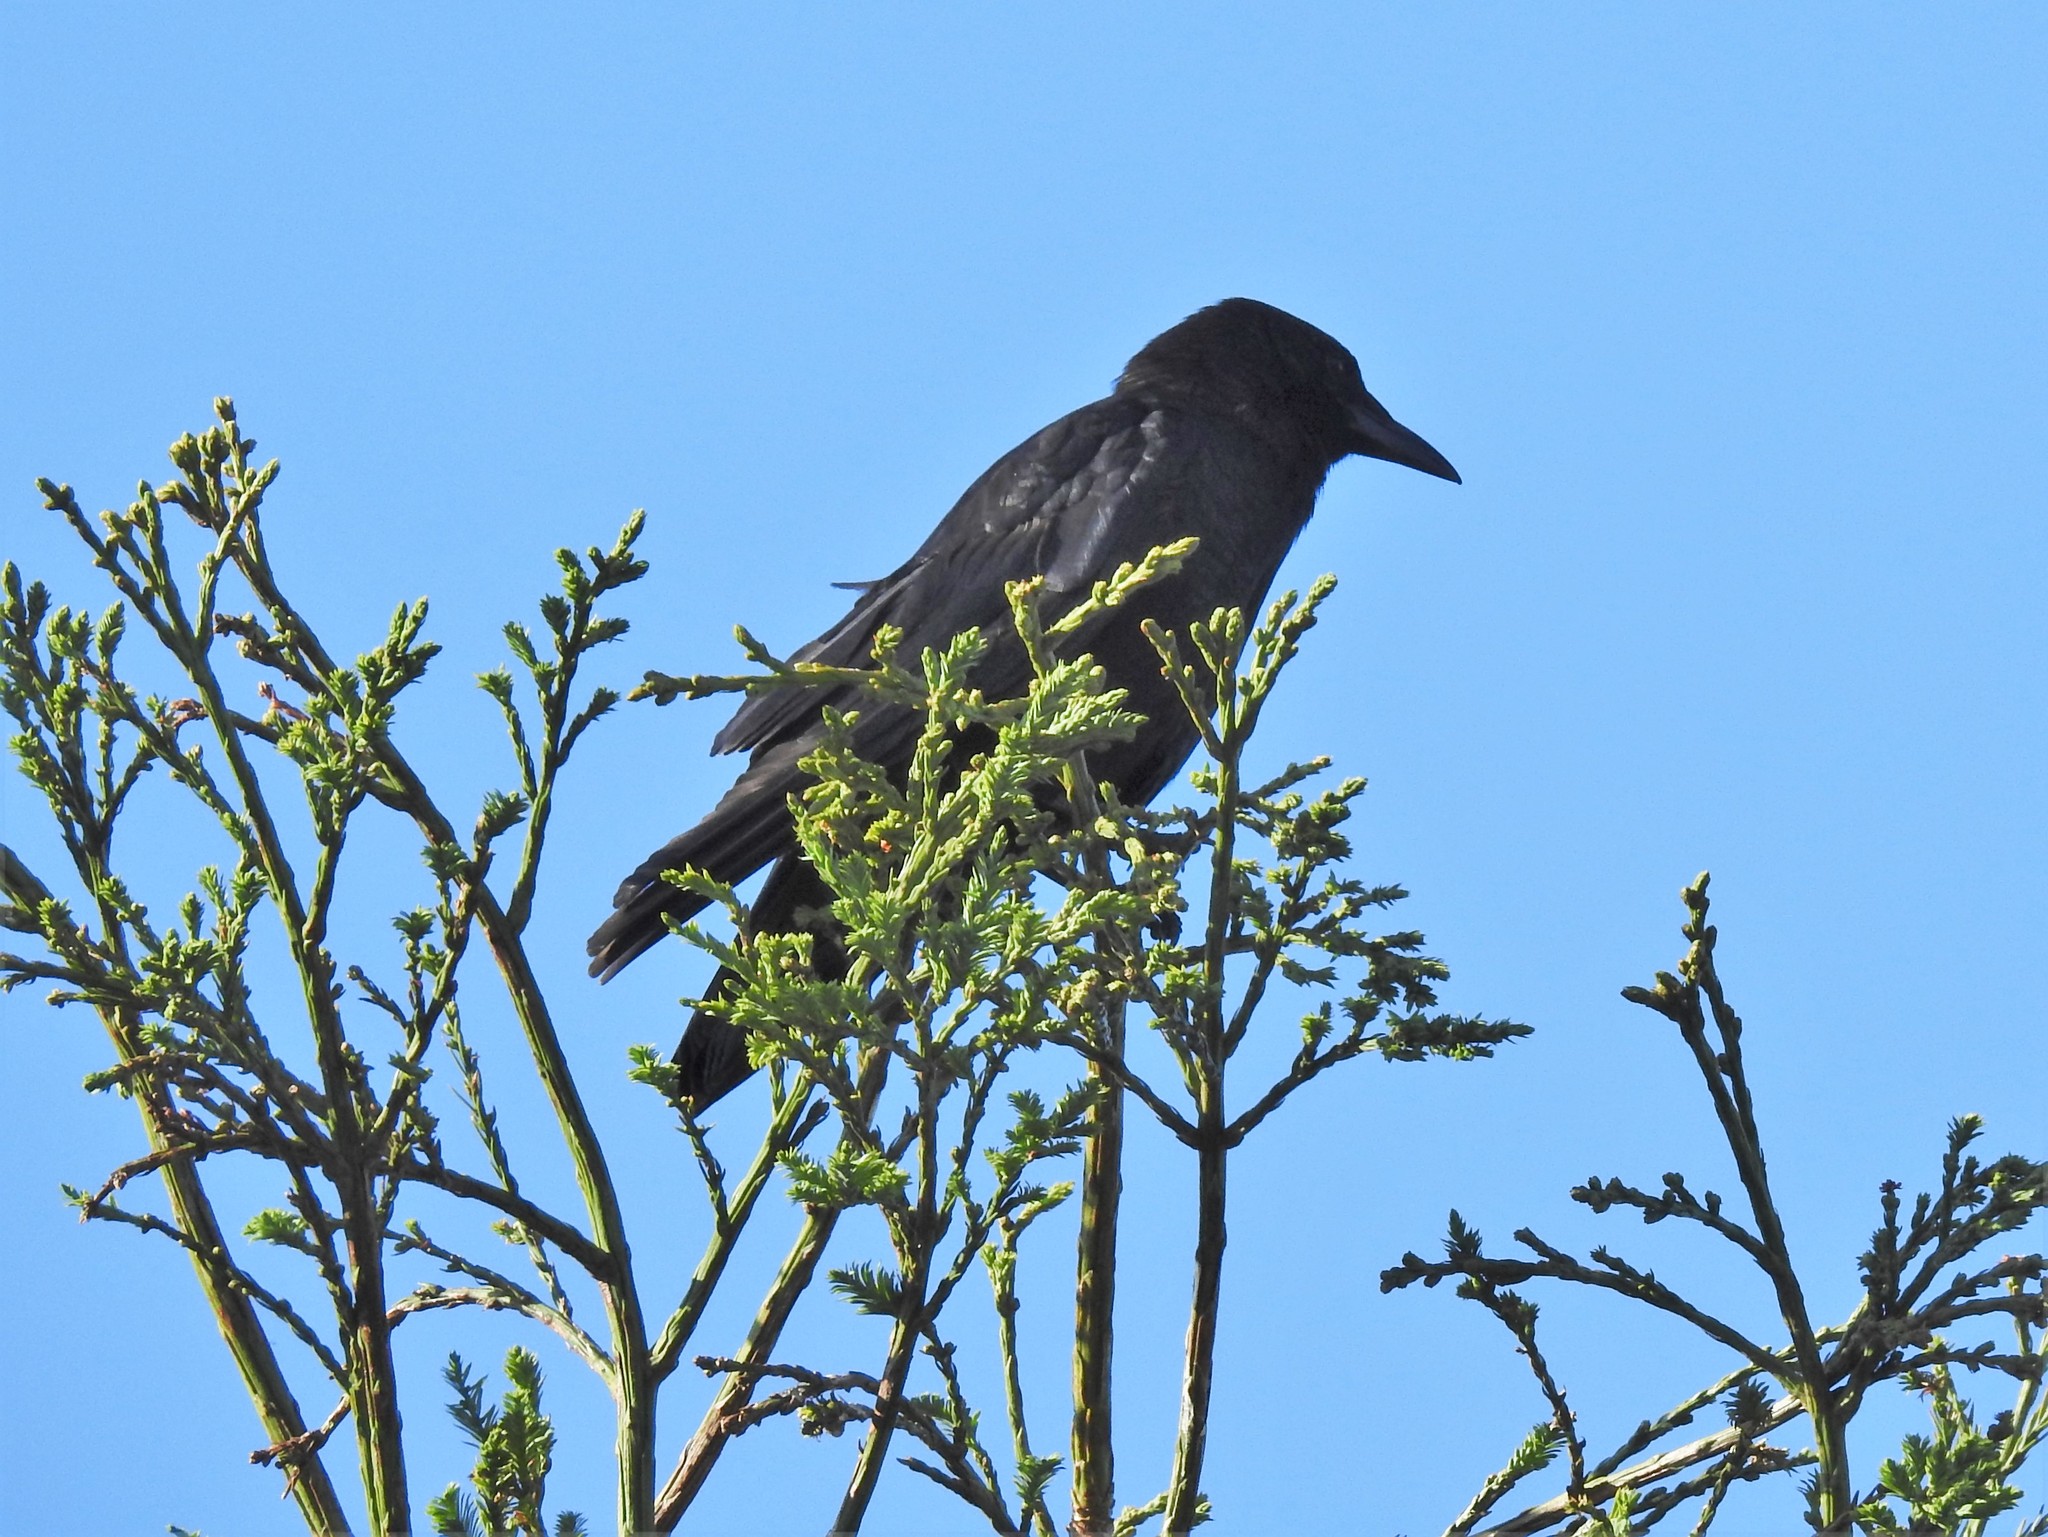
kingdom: Animalia
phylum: Chordata
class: Aves
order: Passeriformes
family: Corvidae
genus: Corvus
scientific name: Corvus brachyrhynchos
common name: American crow
